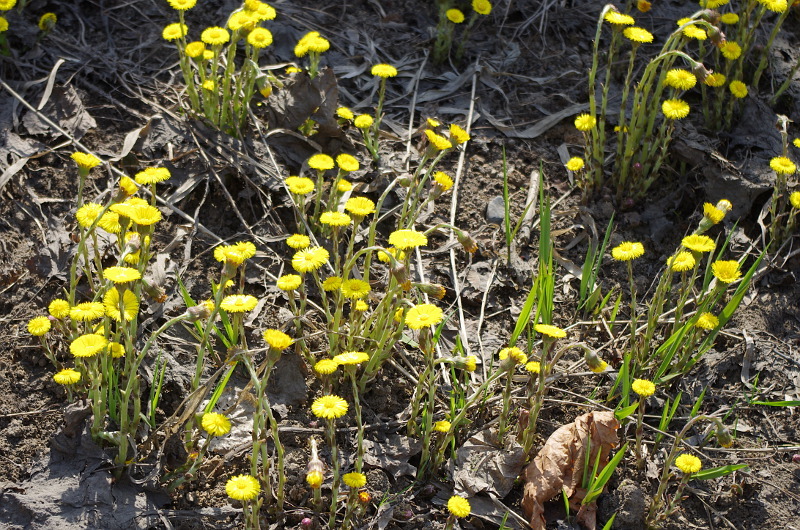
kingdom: Plantae
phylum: Tracheophyta
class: Magnoliopsida
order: Asterales
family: Asteraceae
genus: Tussilago
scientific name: Tussilago farfara
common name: Coltsfoot
